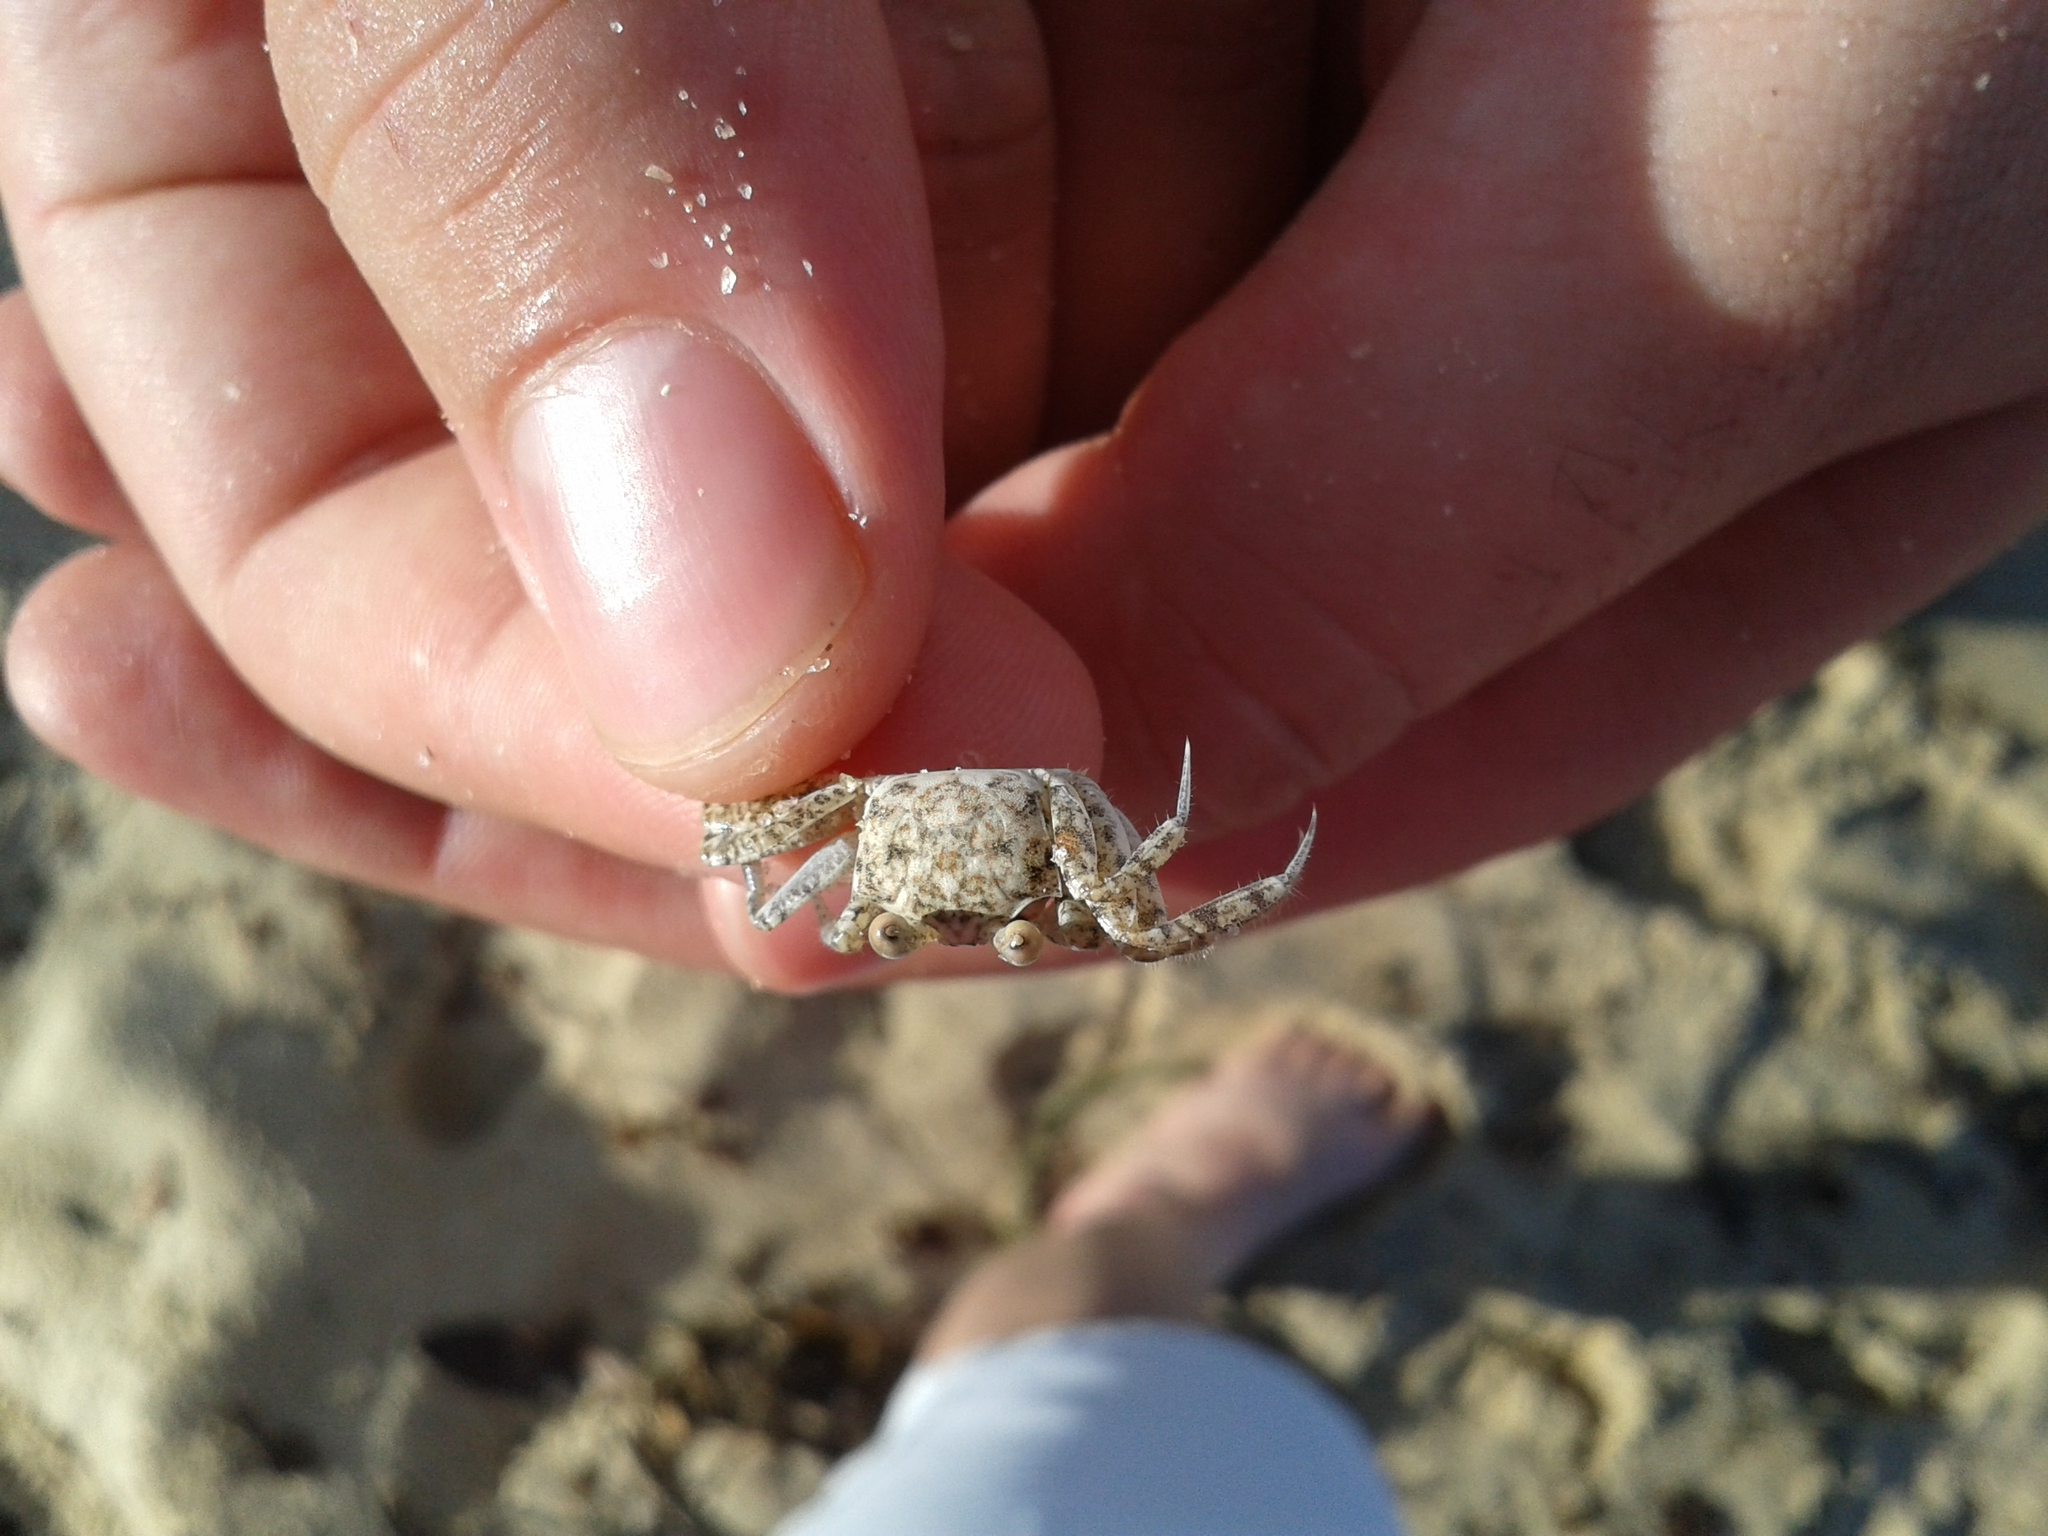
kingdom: Animalia
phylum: Arthropoda
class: Malacostraca
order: Decapoda
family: Ocypodidae
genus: Ocypode
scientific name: Ocypode quadrata
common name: Ghost crab
